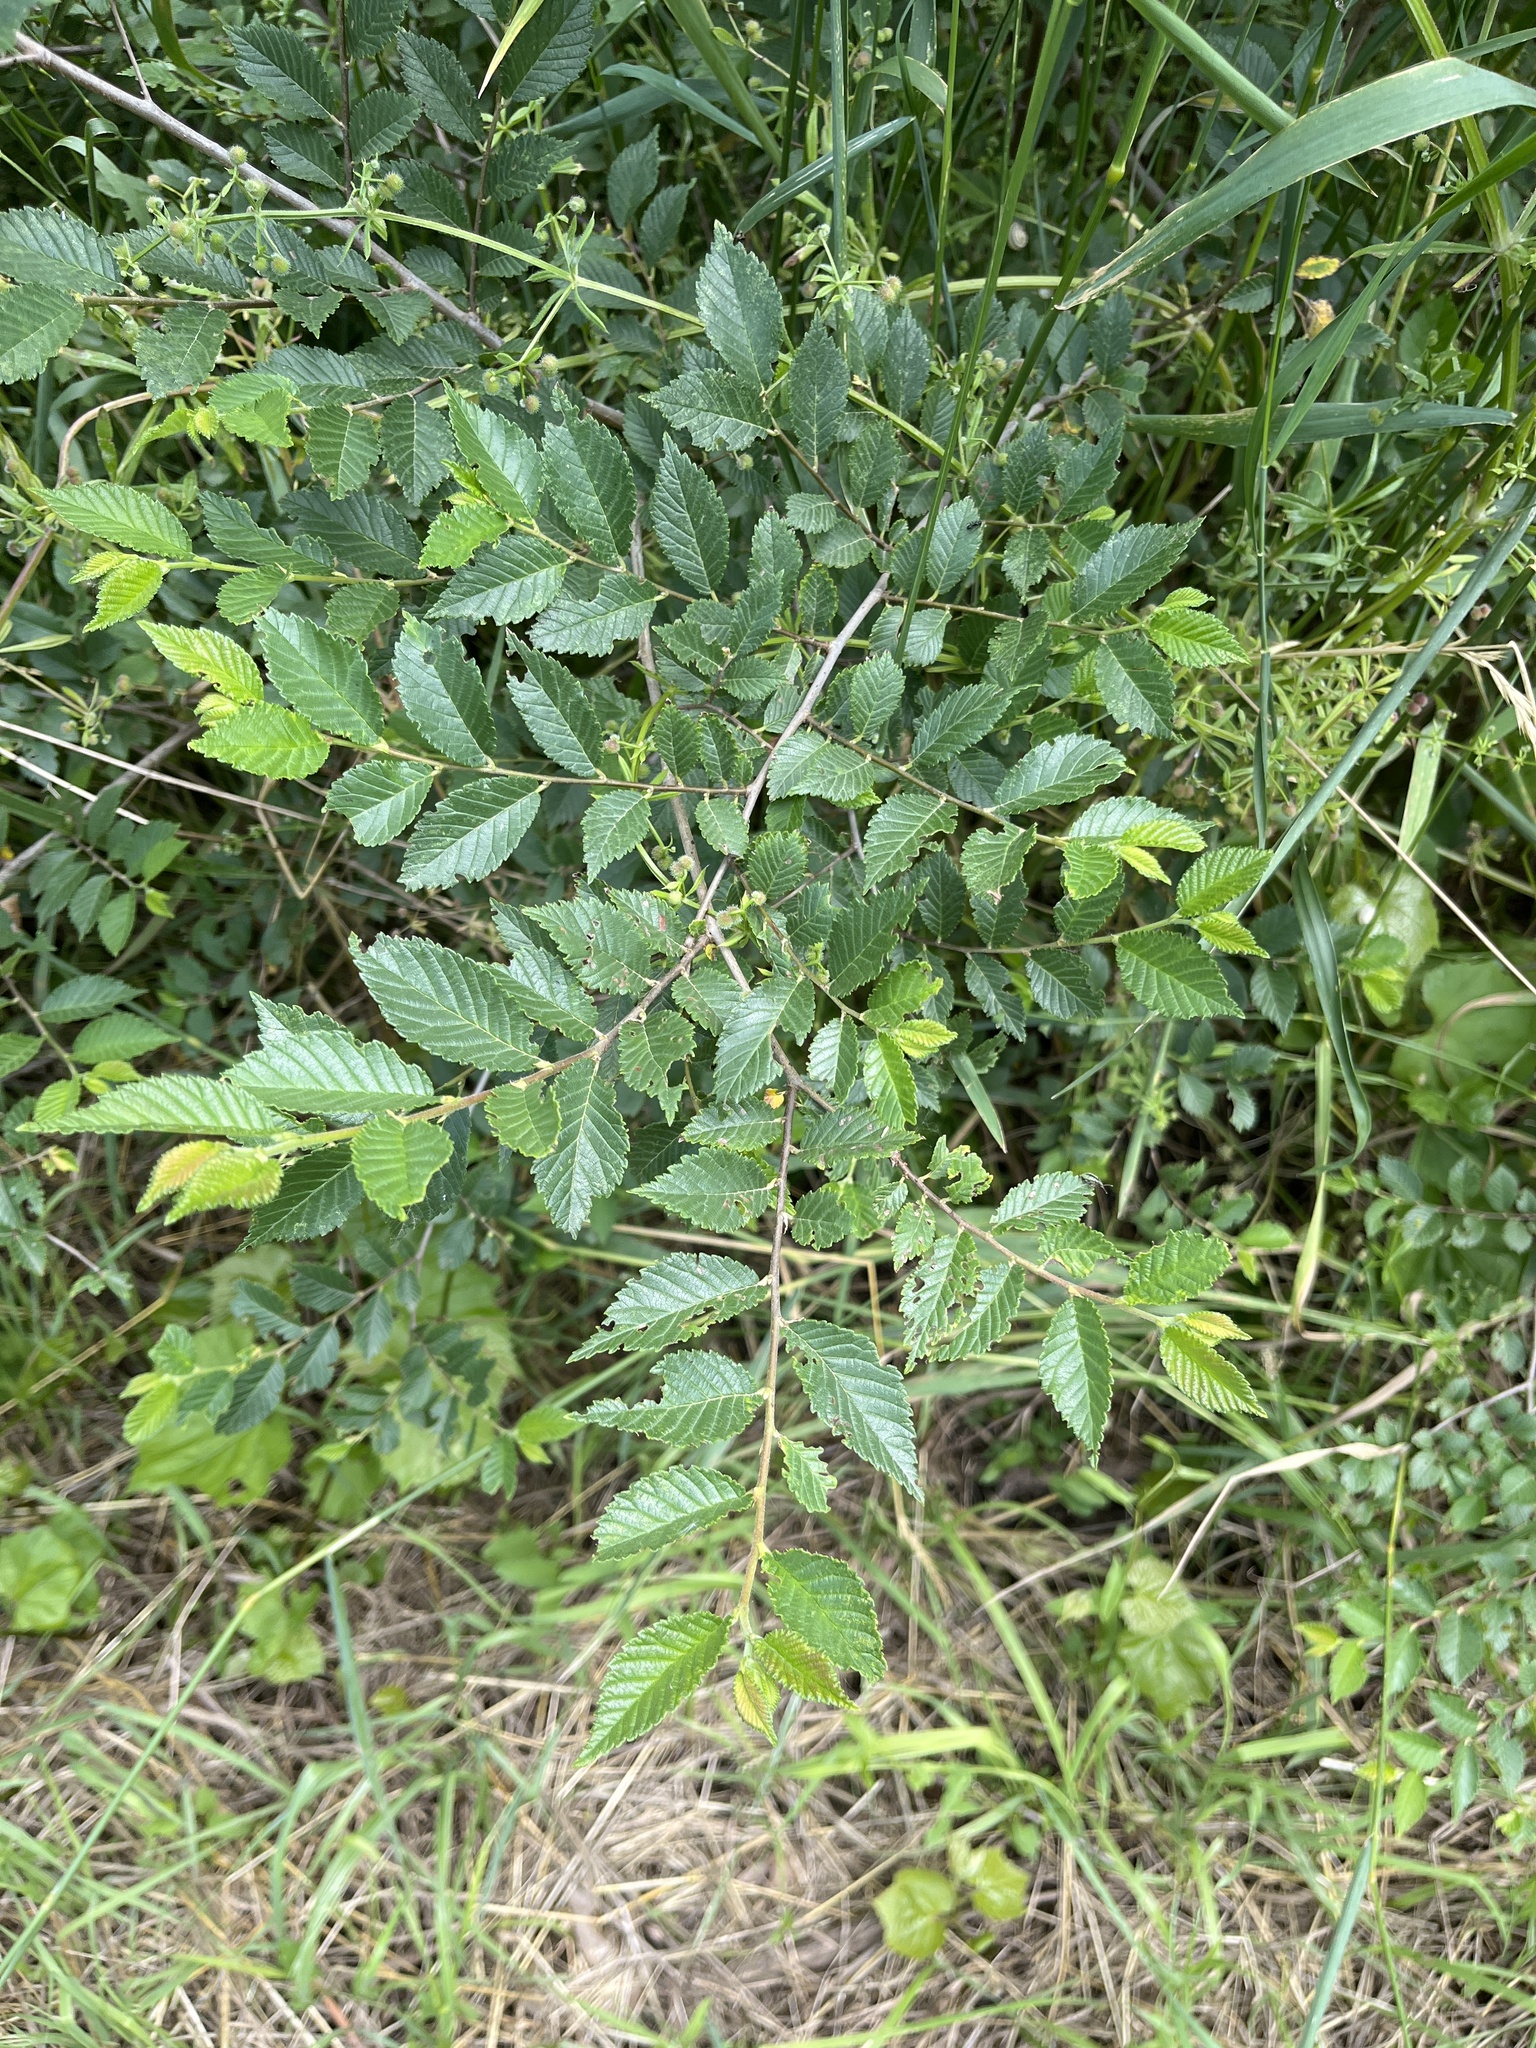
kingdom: Plantae
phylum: Tracheophyta
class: Magnoliopsida
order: Rosales
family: Ulmaceae
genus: Ulmus
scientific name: Ulmus pumila
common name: Siberian elm
